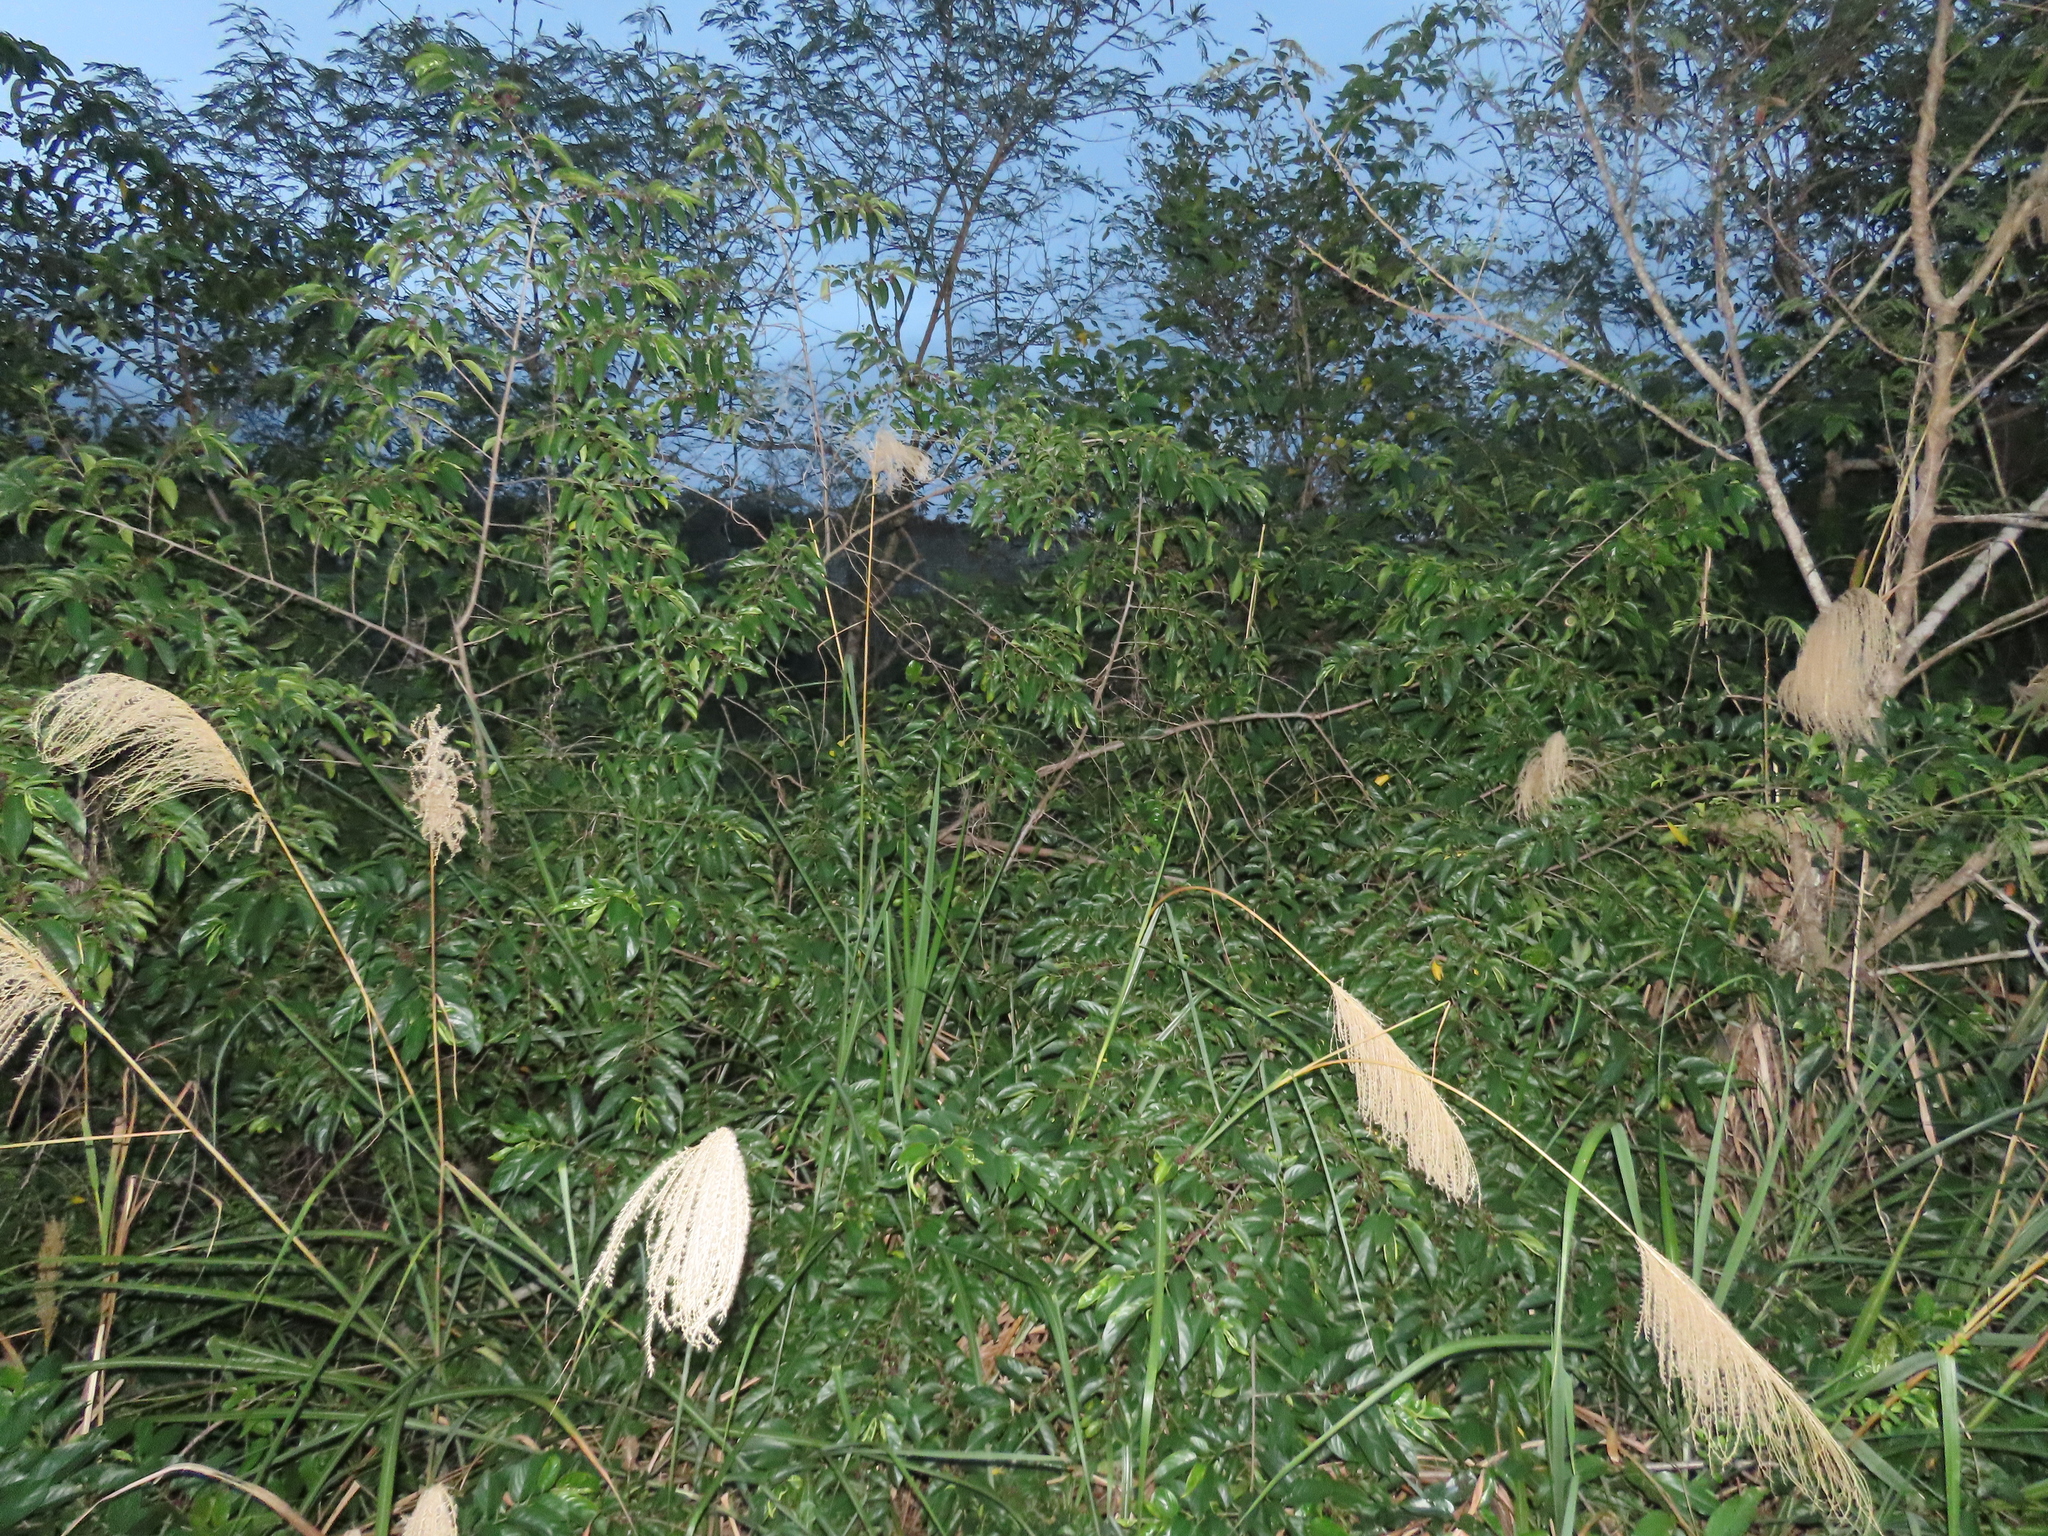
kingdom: Plantae
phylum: Tracheophyta
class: Magnoliopsida
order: Rosales
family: Rhamnaceae
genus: Rhamnus
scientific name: Rhamnus formosana
